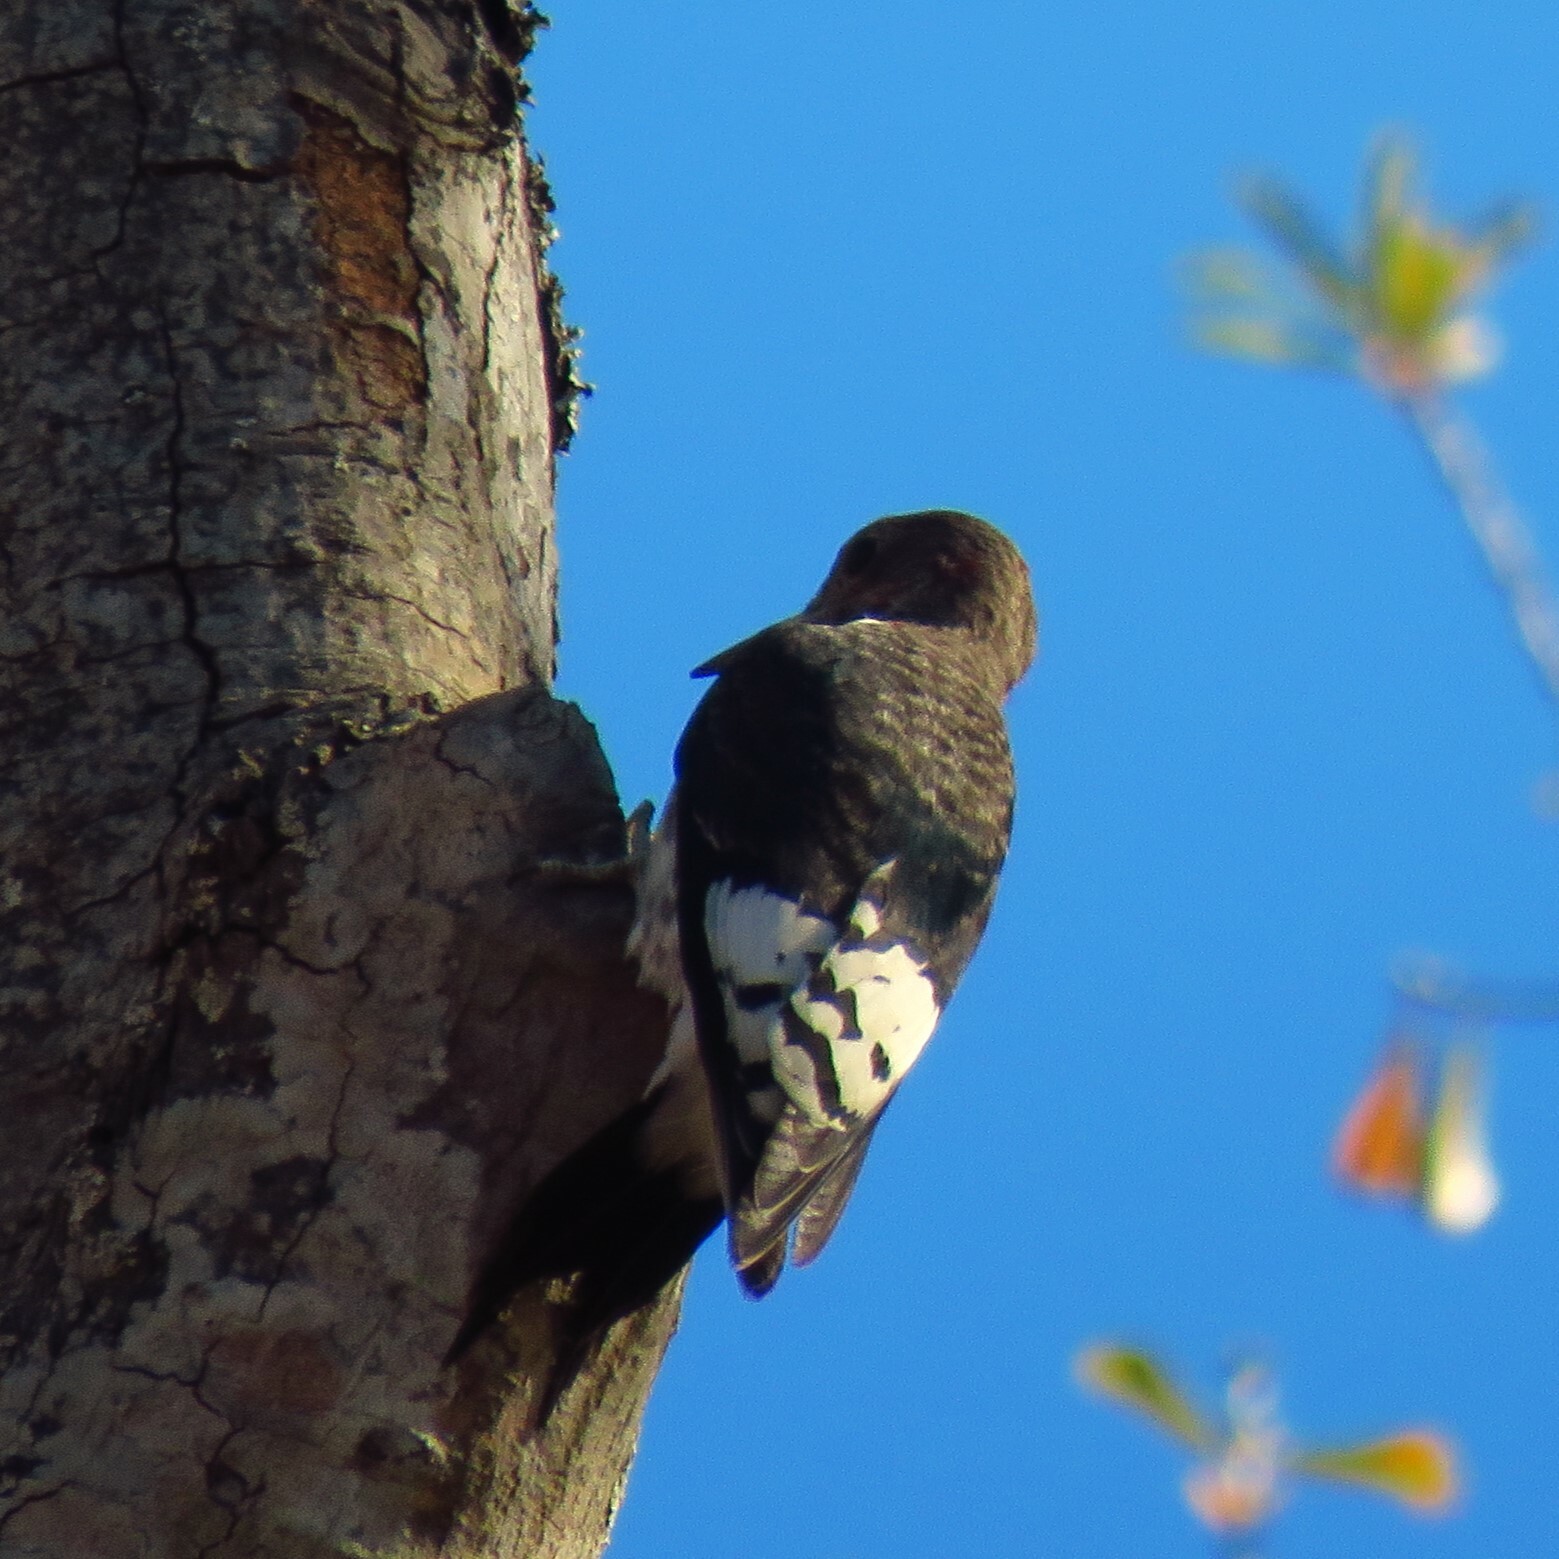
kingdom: Animalia
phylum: Chordata
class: Aves
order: Piciformes
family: Picidae
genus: Melanerpes
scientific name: Melanerpes erythrocephalus
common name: Red-headed woodpecker
